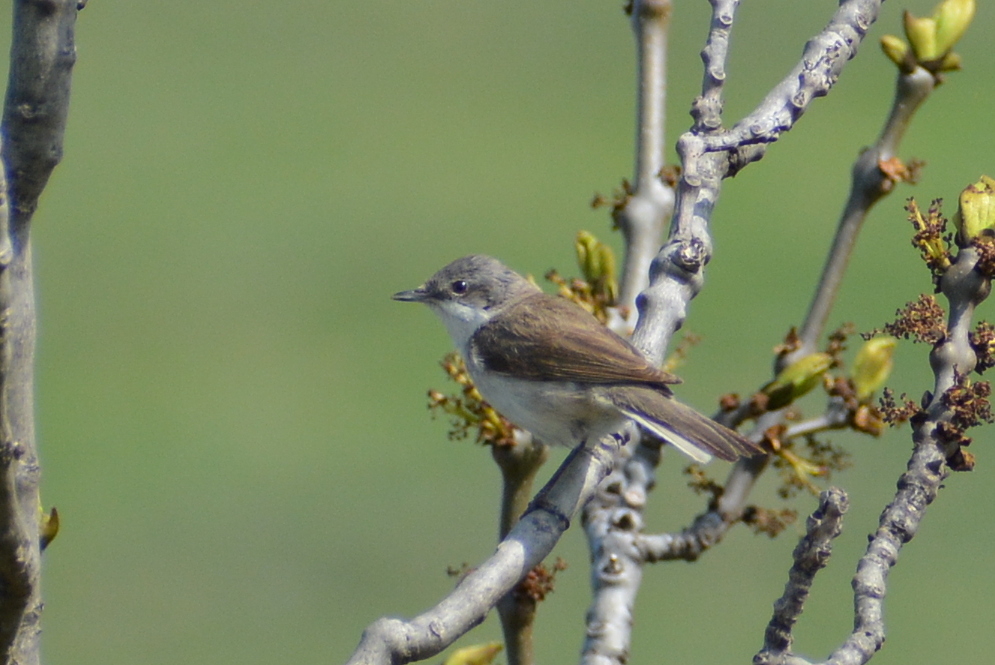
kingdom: Animalia
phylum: Chordata
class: Aves
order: Passeriformes
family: Sylviidae
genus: Sylvia
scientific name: Sylvia curruca
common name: Lesser whitethroat
